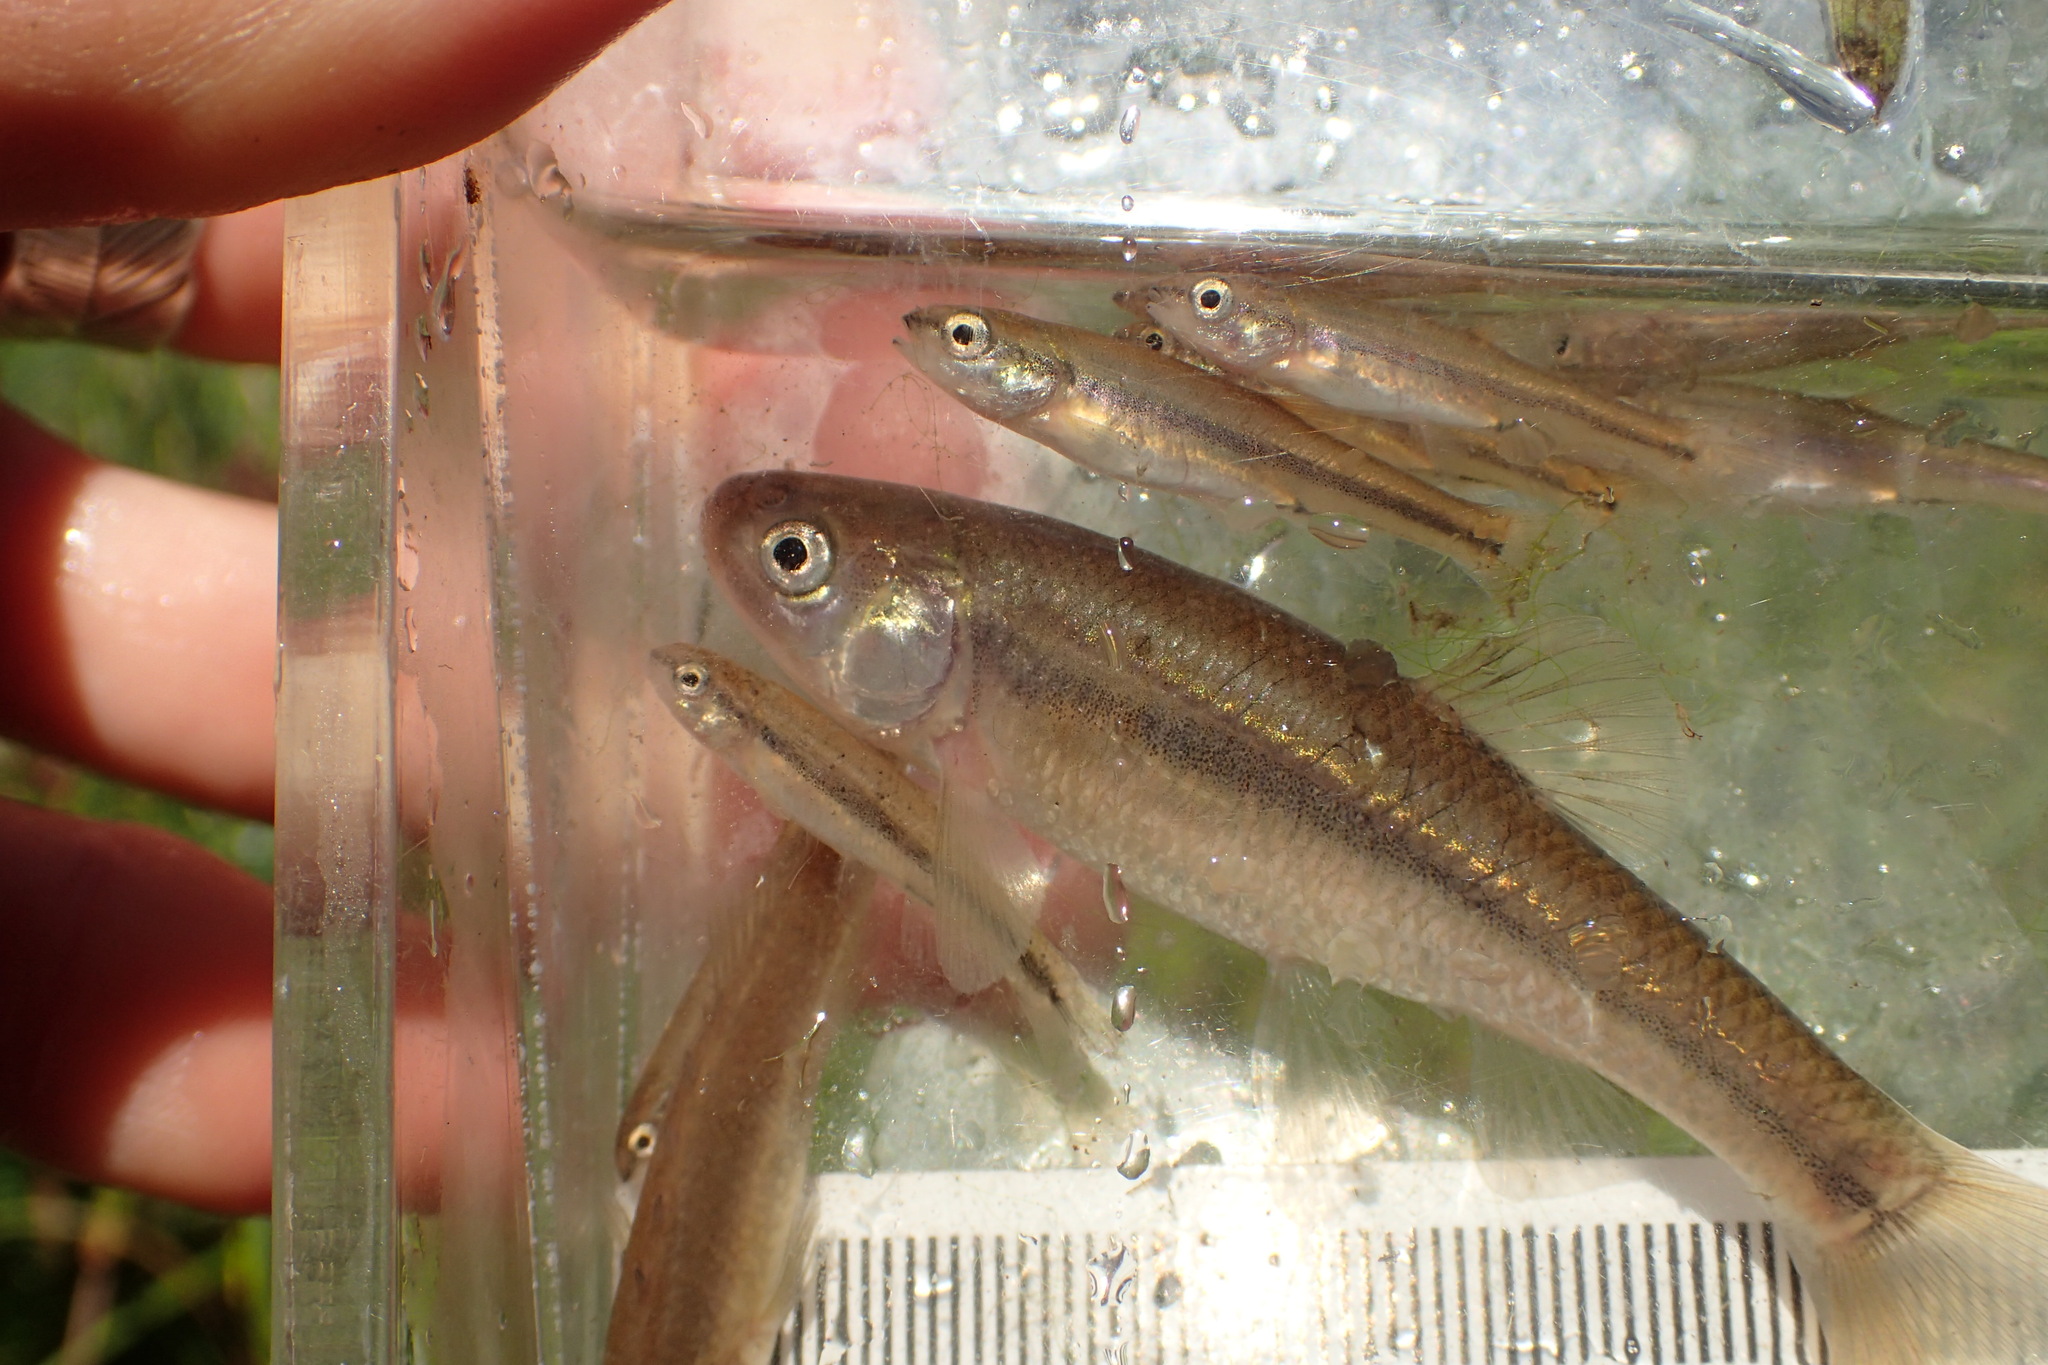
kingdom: Animalia
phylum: Chordata
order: Cypriniformes
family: Cyprinidae
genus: Pimephales
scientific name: Pimephales promelas
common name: Fathead minnow
